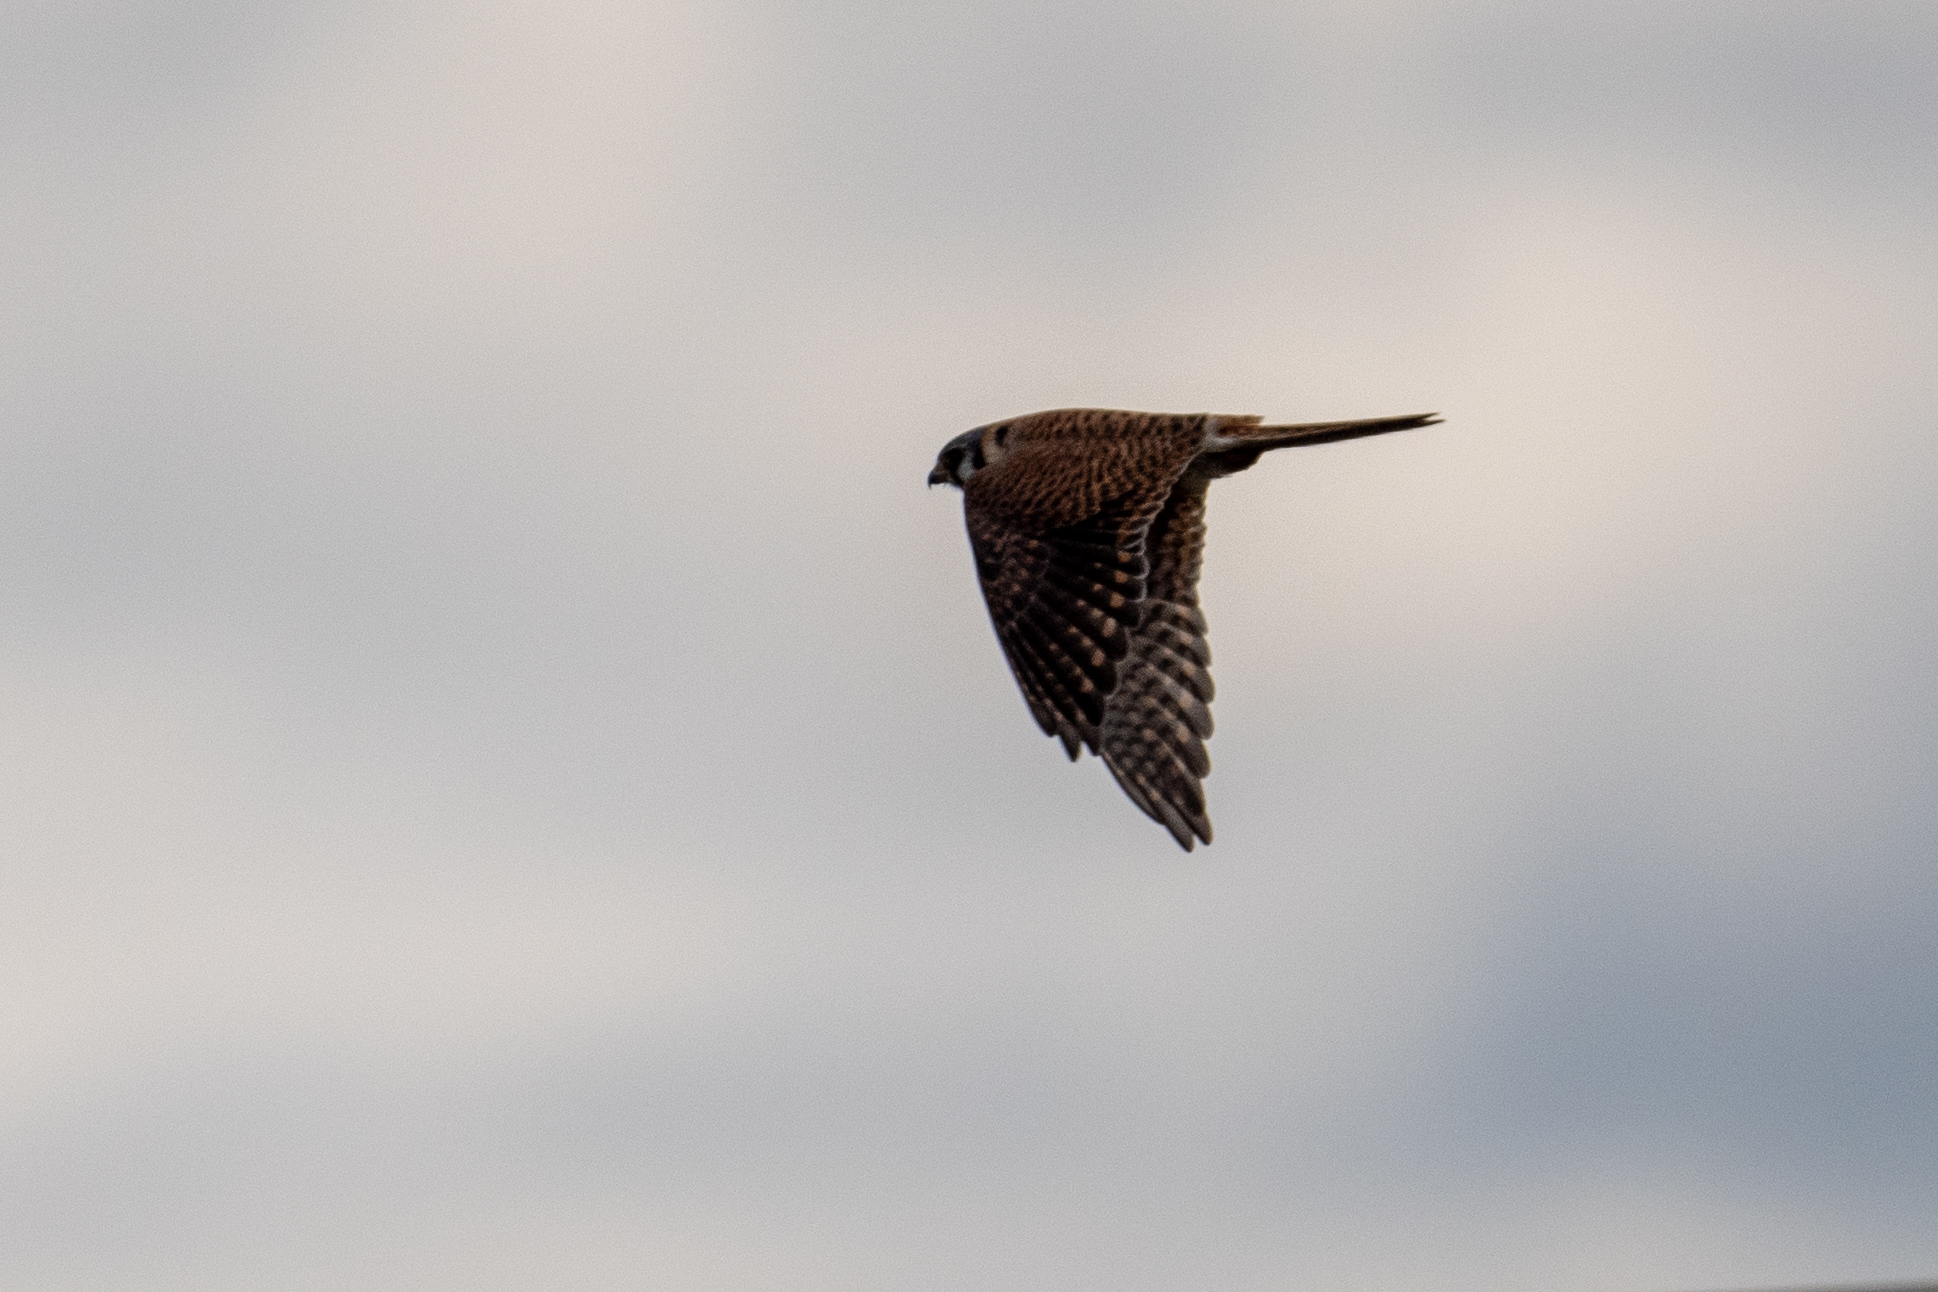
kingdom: Animalia
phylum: Chordata
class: Aves
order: Falconiformes
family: Falconidae
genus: Falco
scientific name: Falco sparverius
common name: American kestrel
